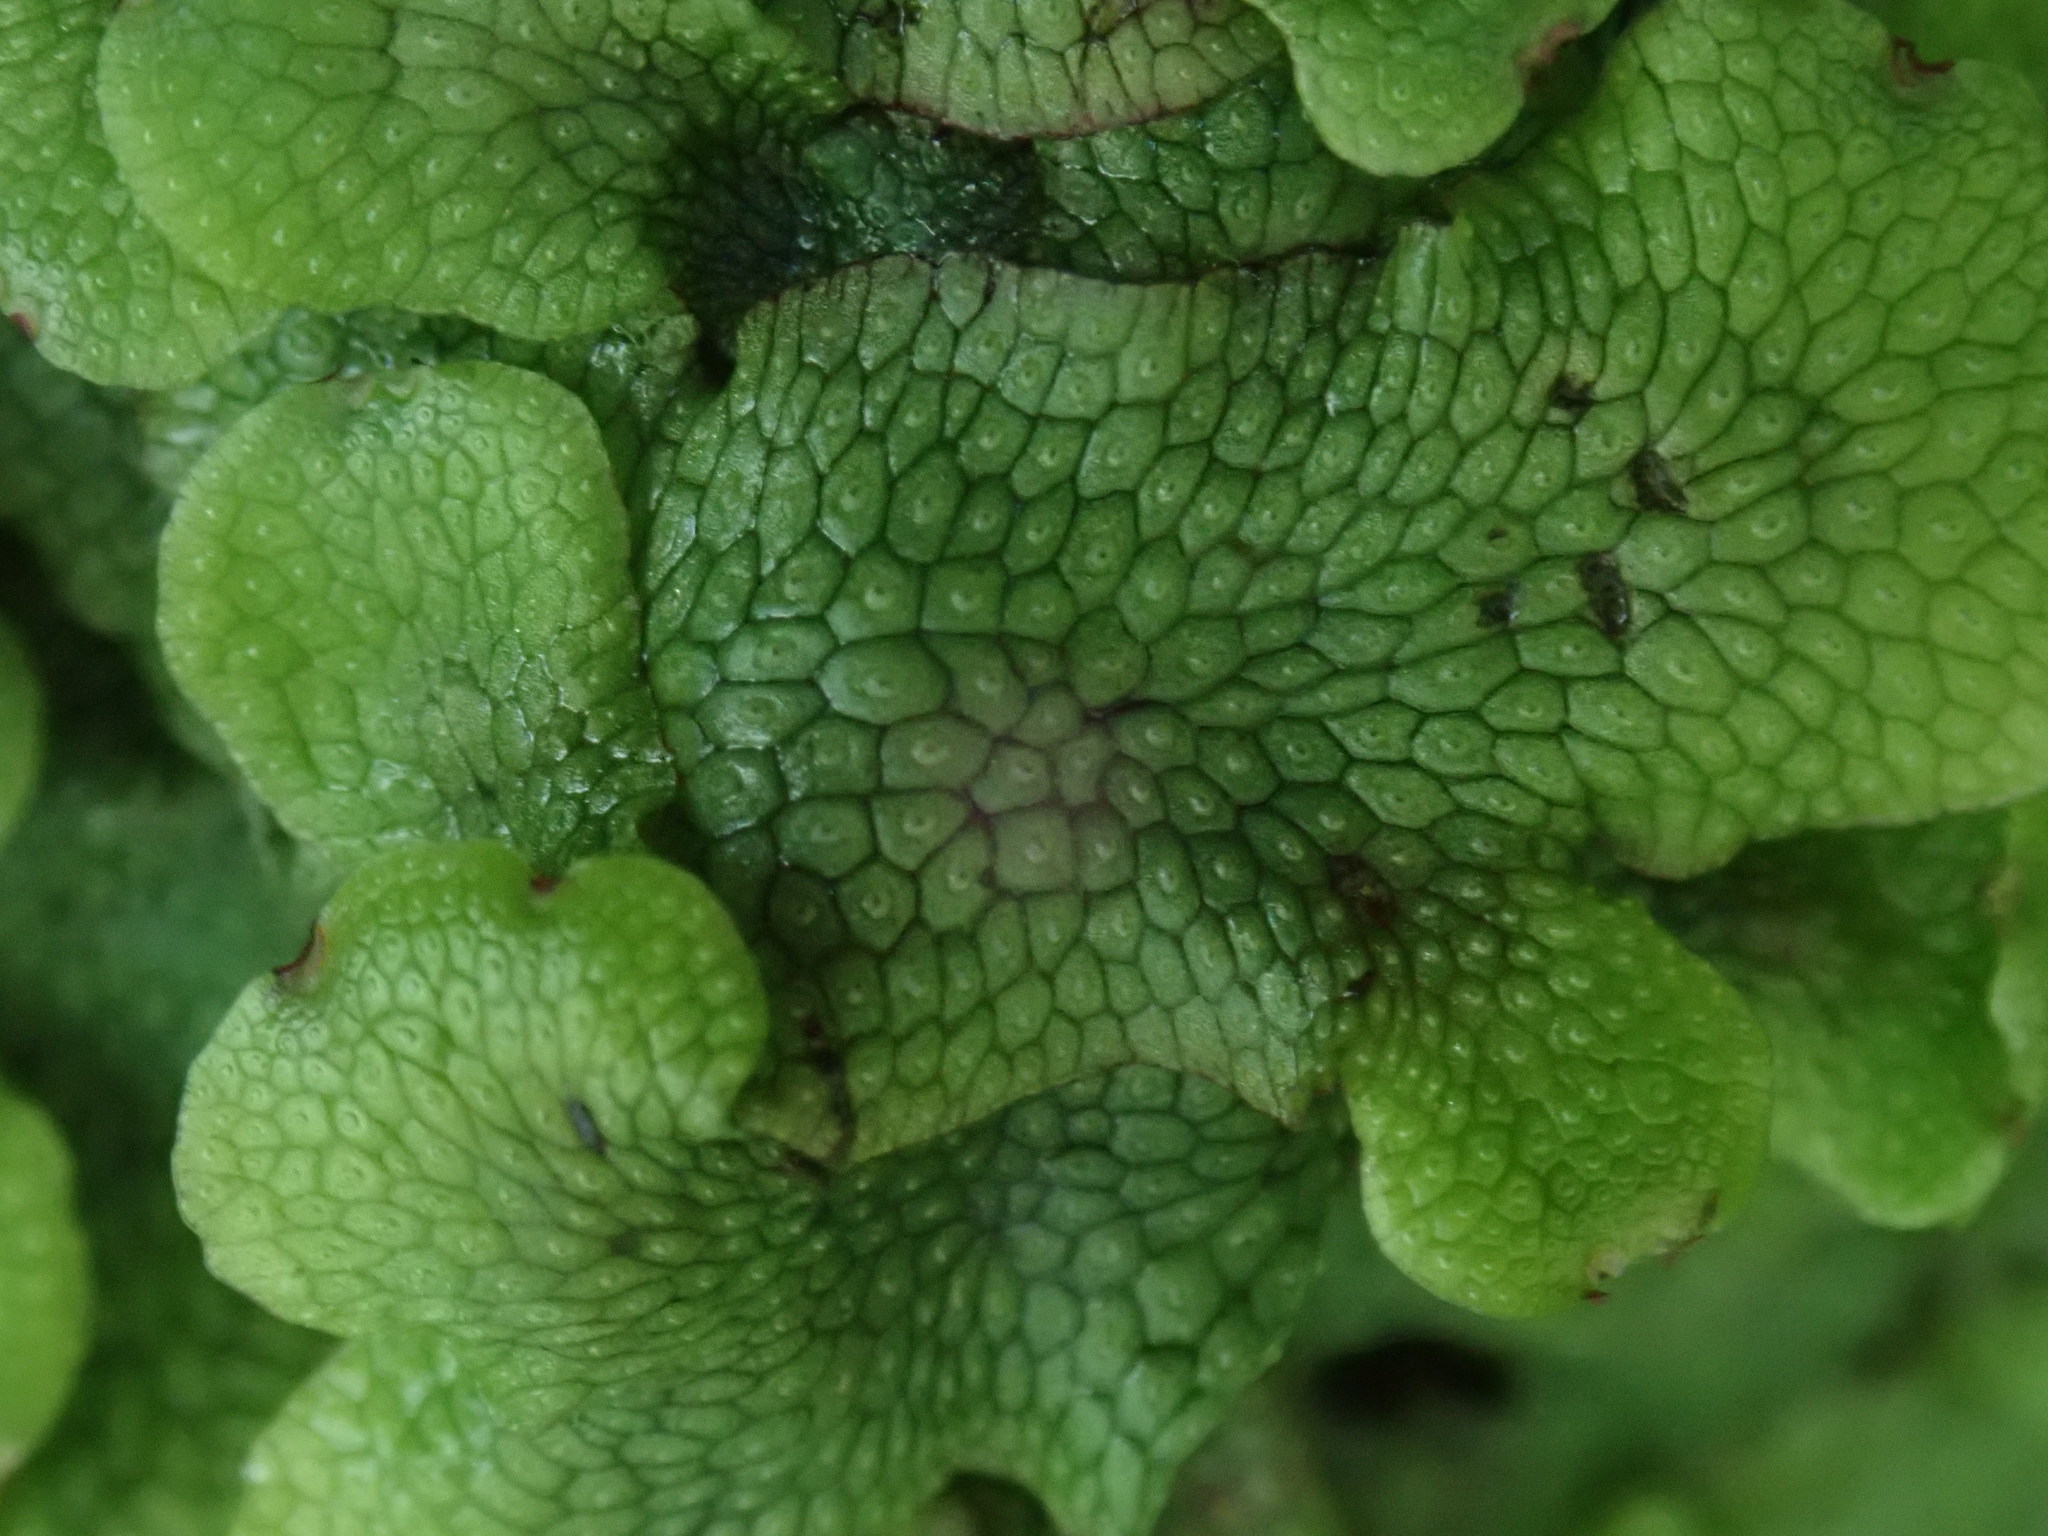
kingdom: Plantae
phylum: Marchantiophyta
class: Marchantiopsida
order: Marchantiales
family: Conocephalaceae
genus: Conocephalum
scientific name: Conocephalum salebrosum
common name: Cat-tongue liverwort
